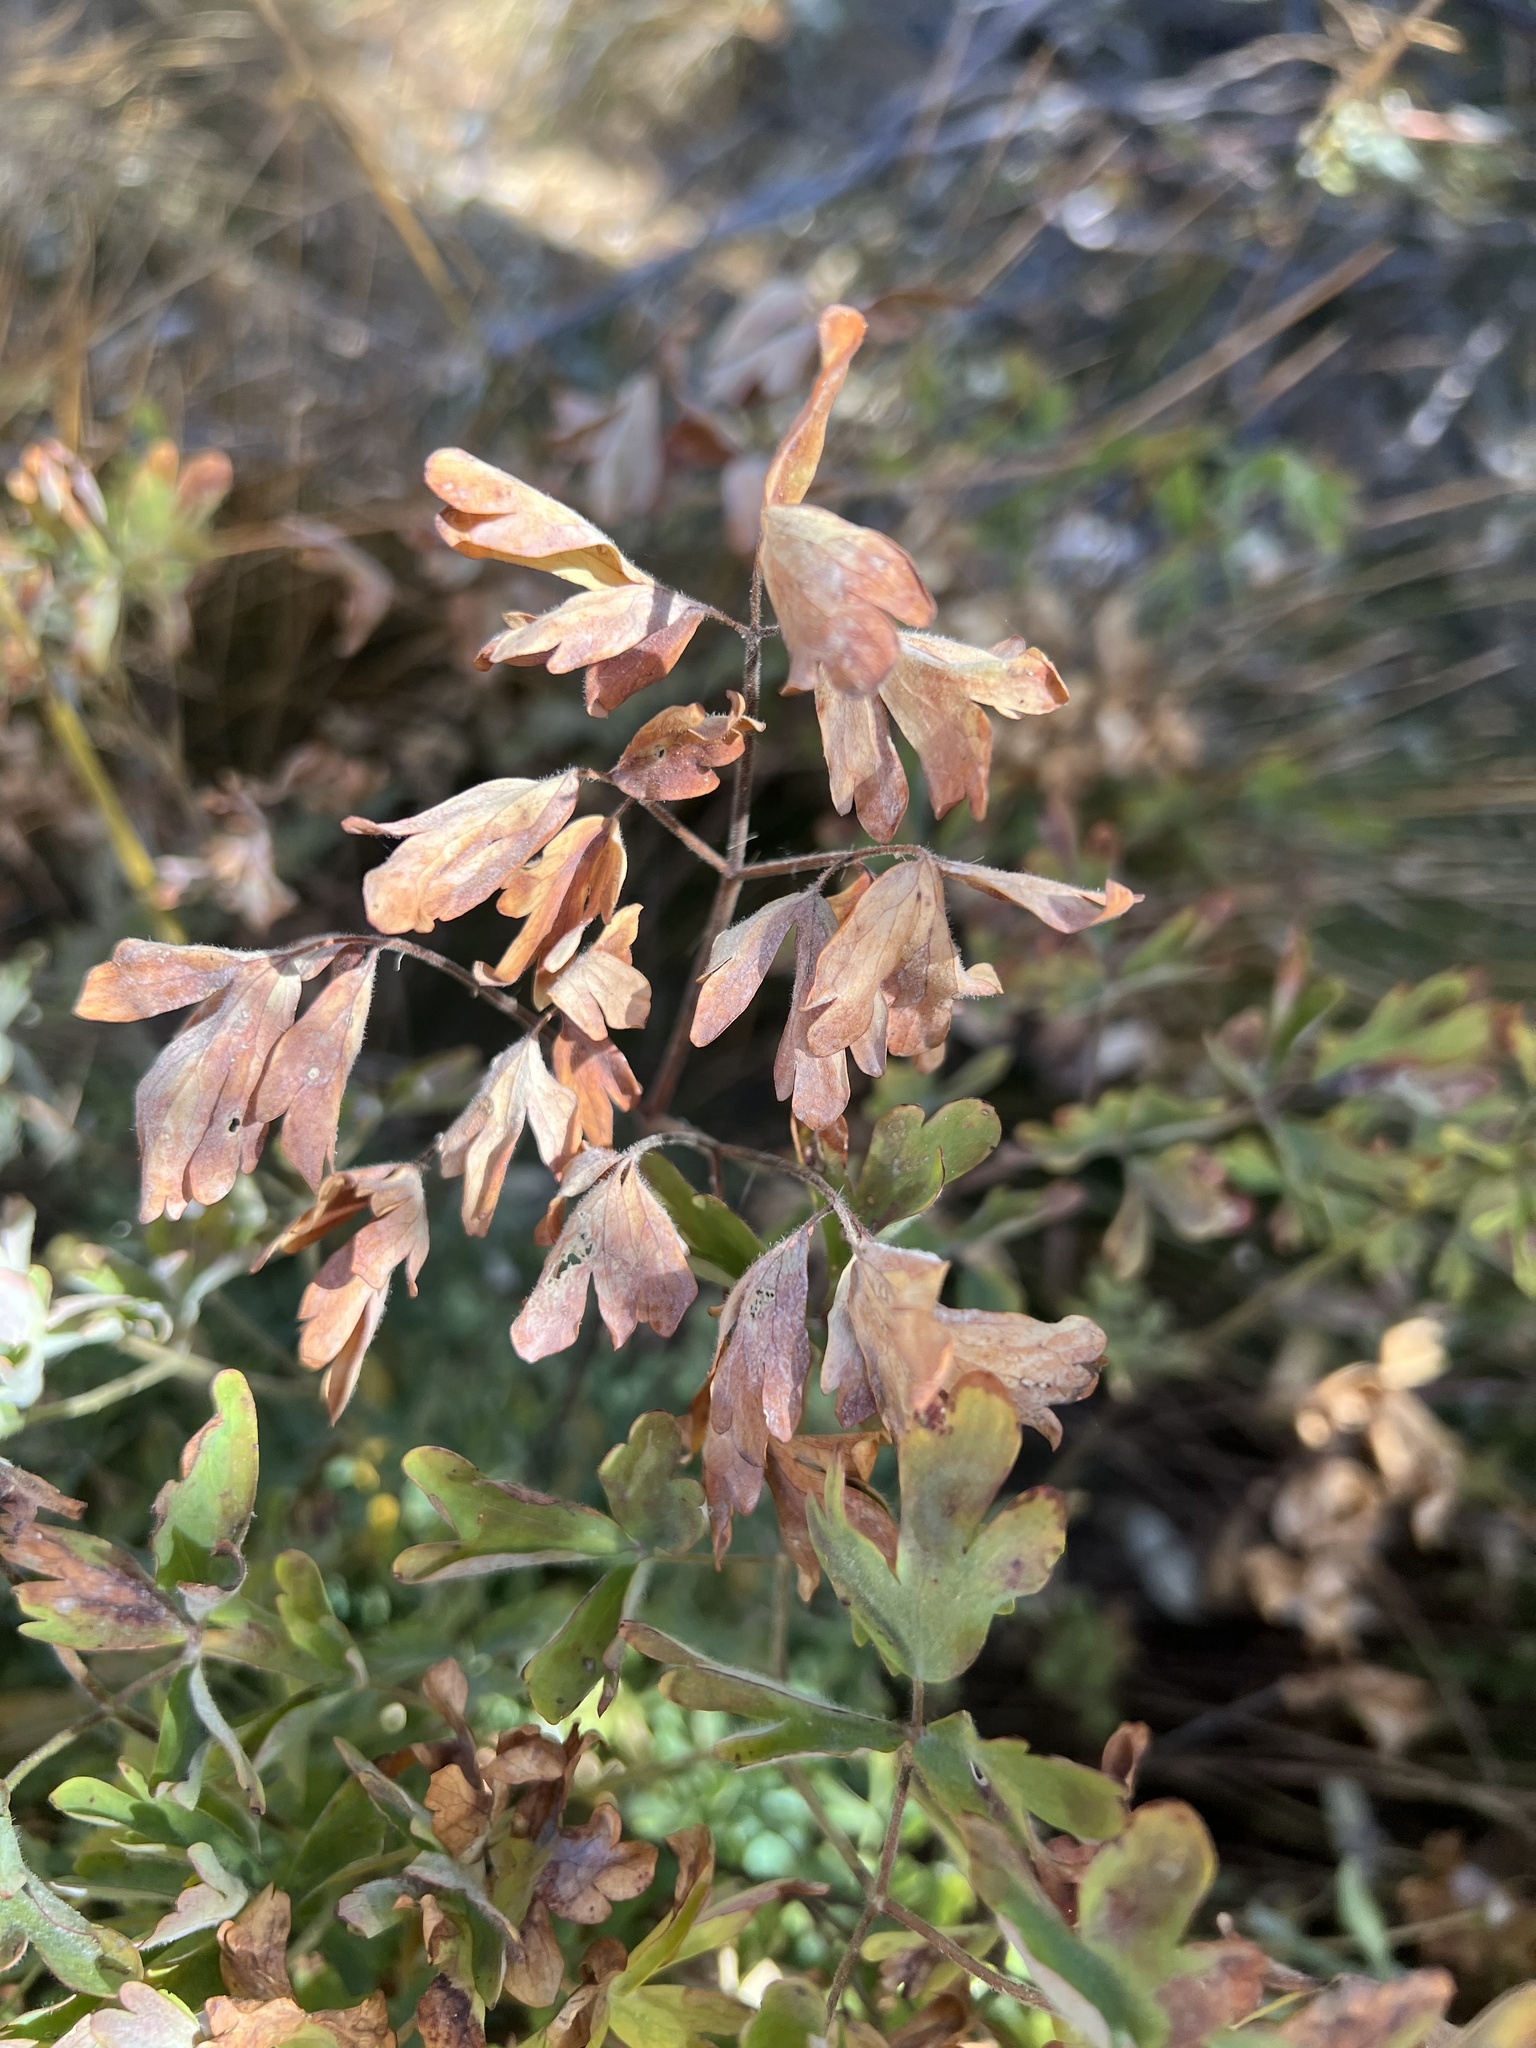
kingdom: Plantae
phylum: Tracheophyta
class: Magnoliopsida
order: Ranunculales
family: Ranunculaceae
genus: Aquilegia
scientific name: Aquilegia formosa
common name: Sitka columbine
